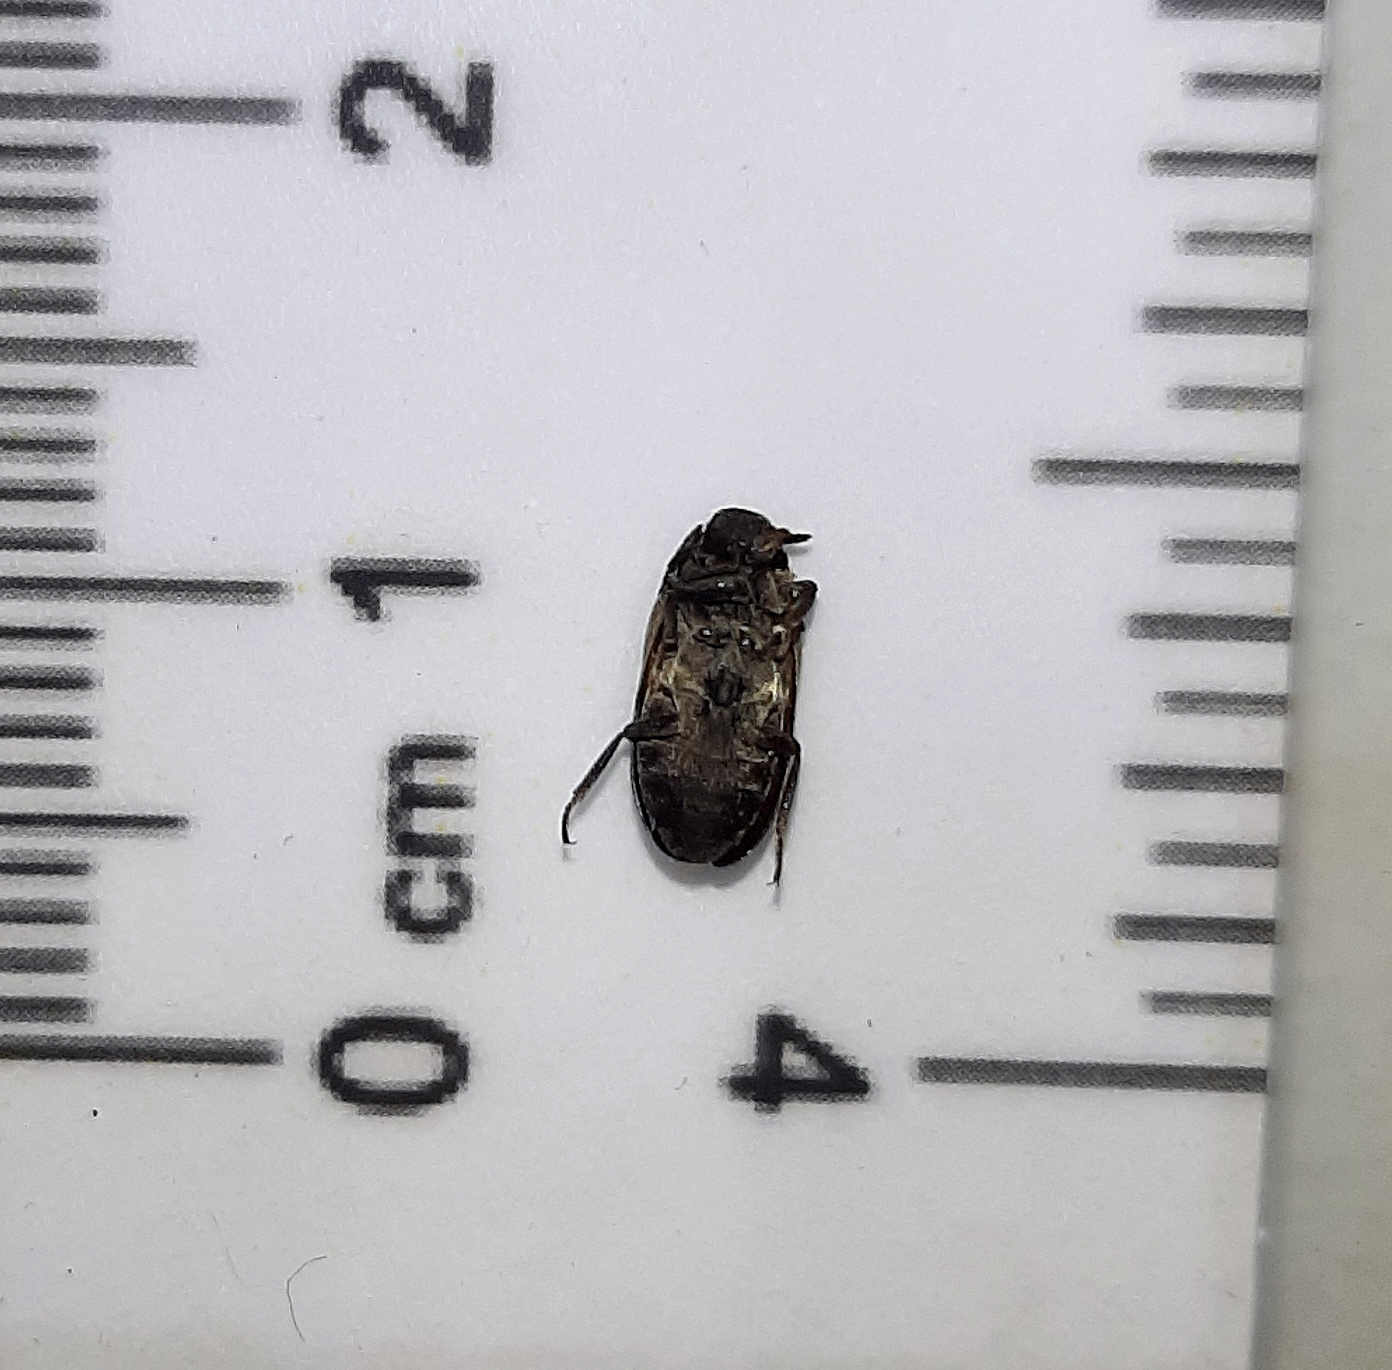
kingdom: Animalia
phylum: Arthropoda
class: Insecta
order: Coleoptera
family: Dermestidae
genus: Dermestes
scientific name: Dermestes lardarius
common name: Larder beetle
